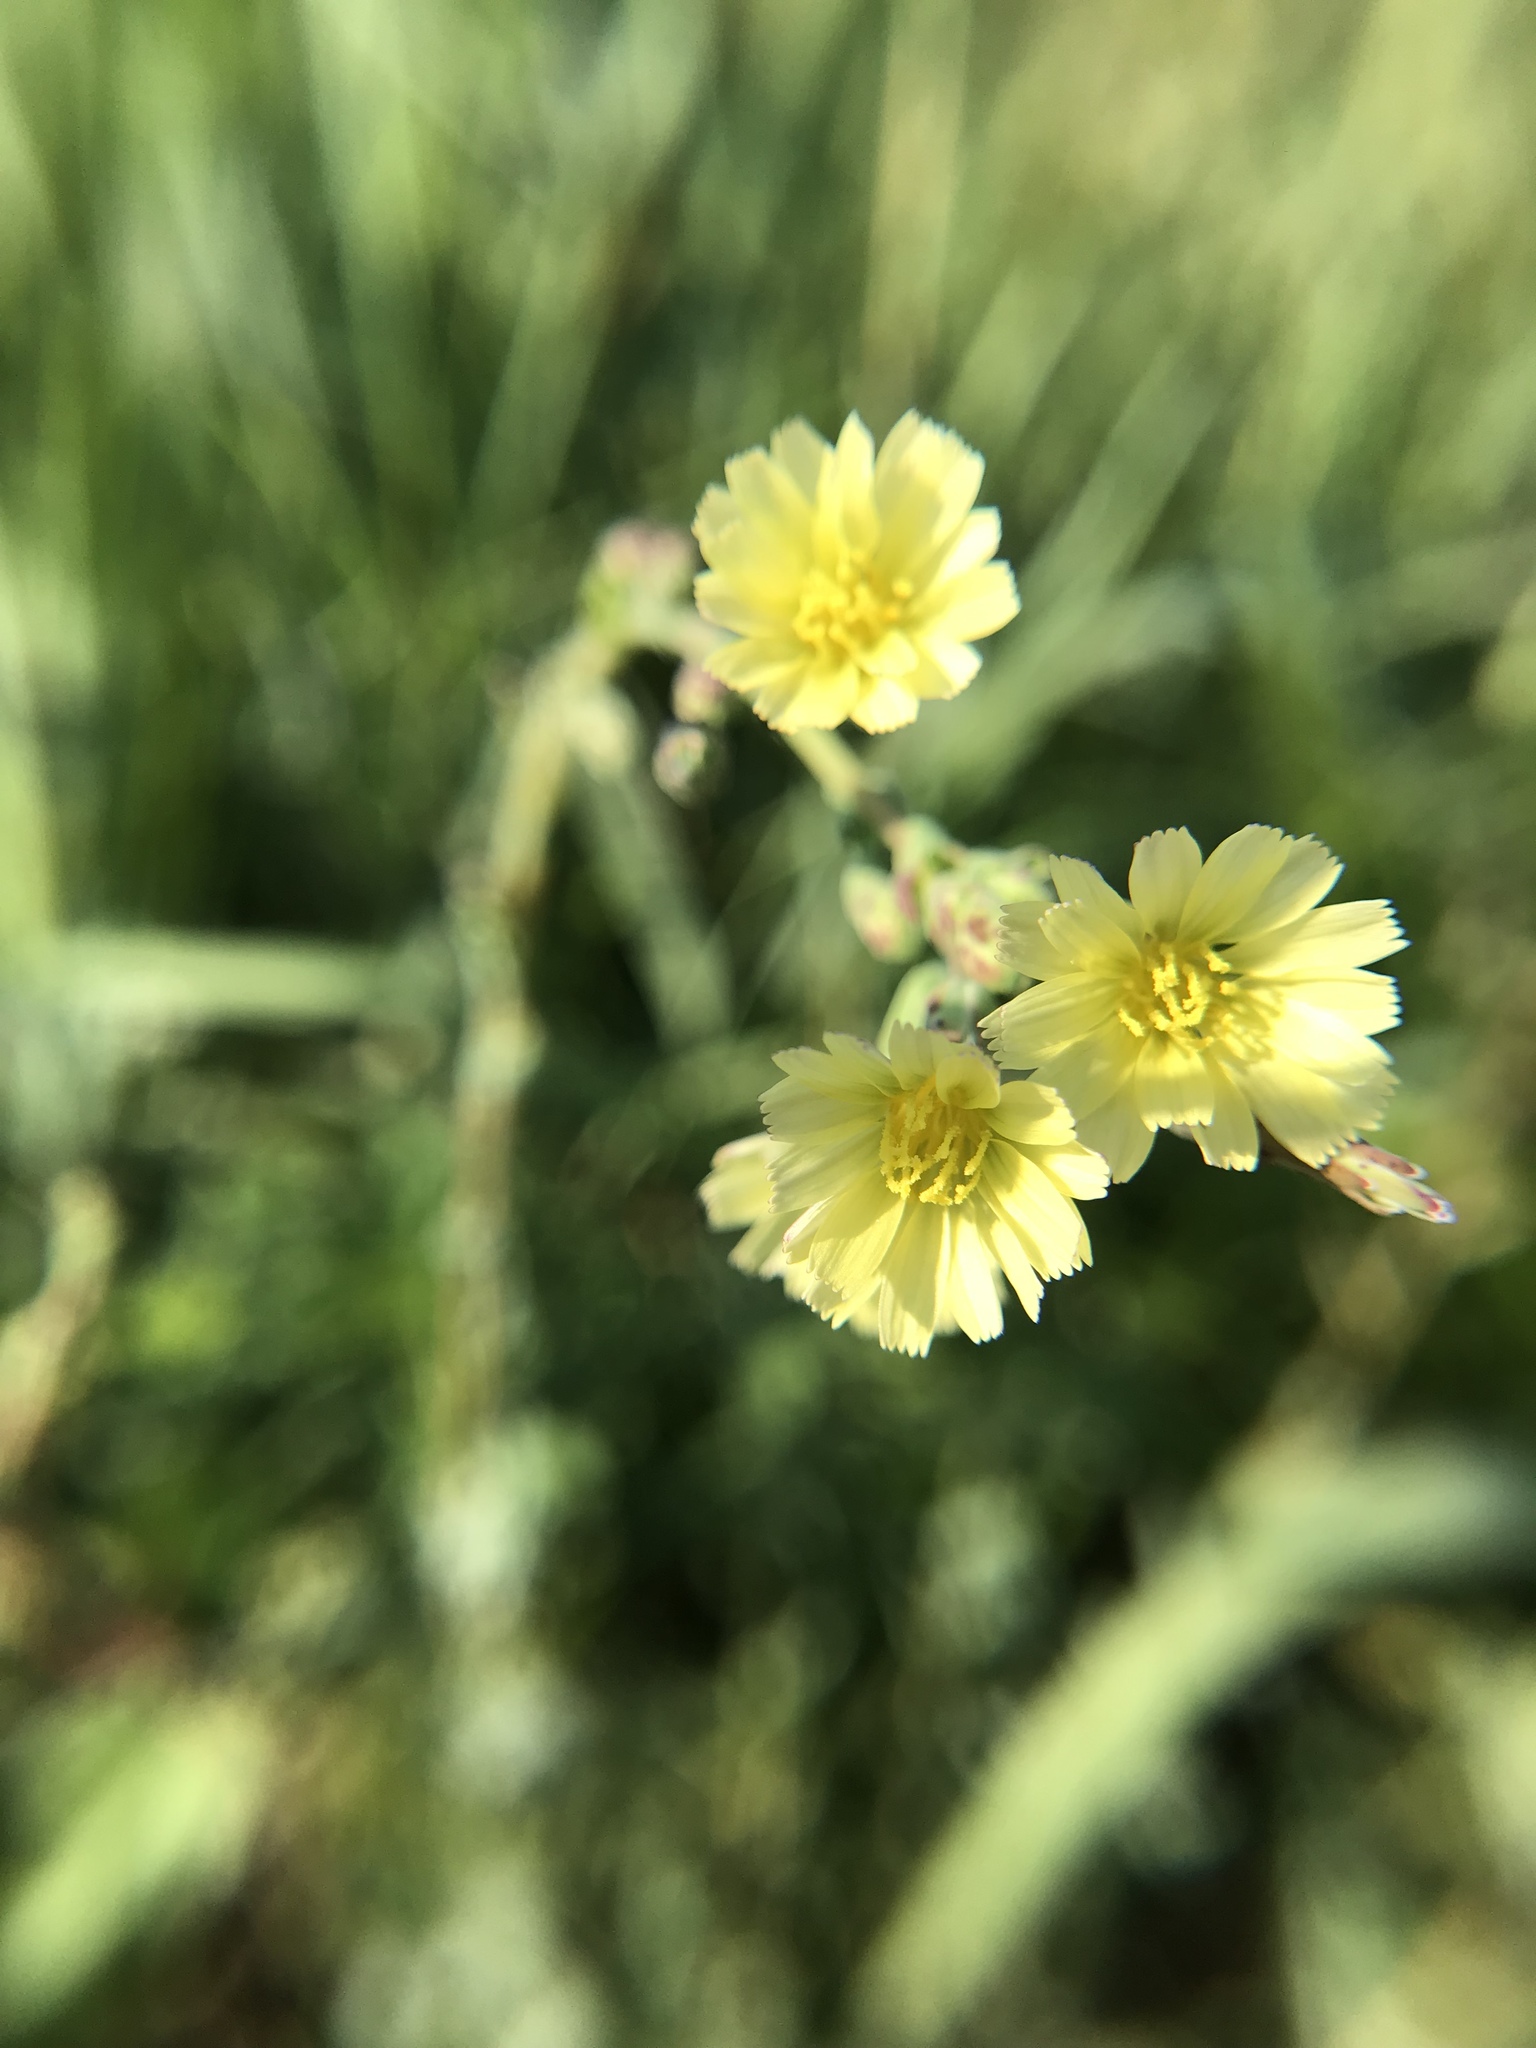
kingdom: Plantae
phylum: Tracheophyta
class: Magnoliopsida
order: Asterales
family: Asteraceae
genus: Lactuca
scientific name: Lactuca canadensis
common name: Canada lettuce
